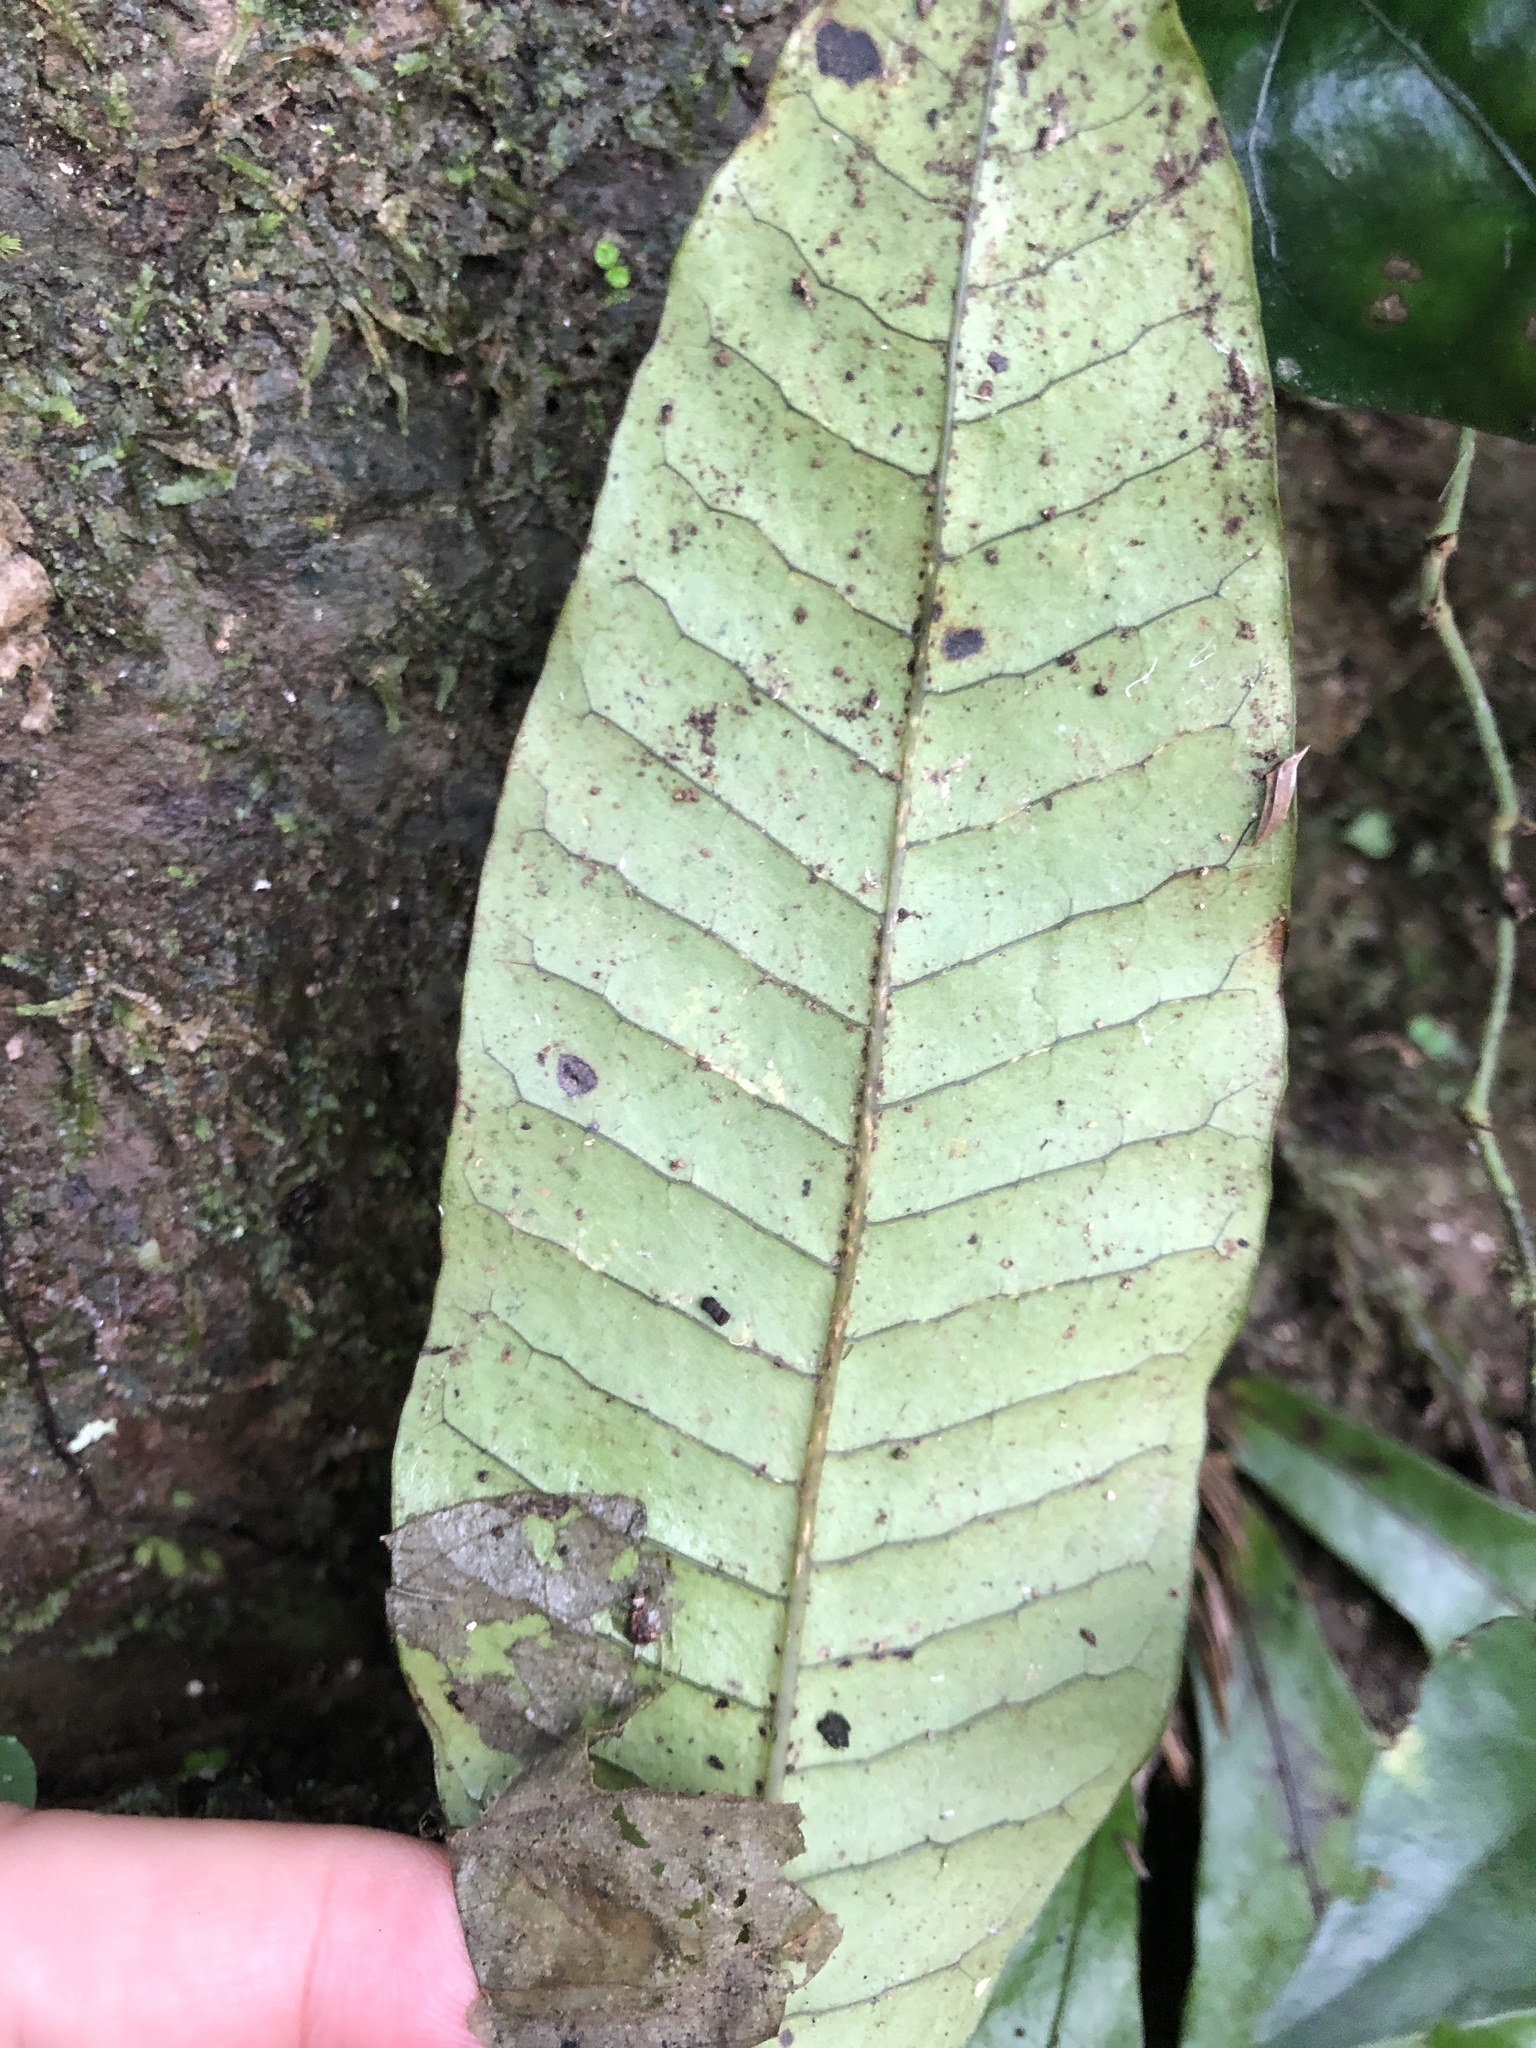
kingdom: Plantae
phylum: Tracheophyta
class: Polypodiopsida
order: Polypodiales
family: Polypodiaceae
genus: Leptochilus
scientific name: Leptochilus decurrens
